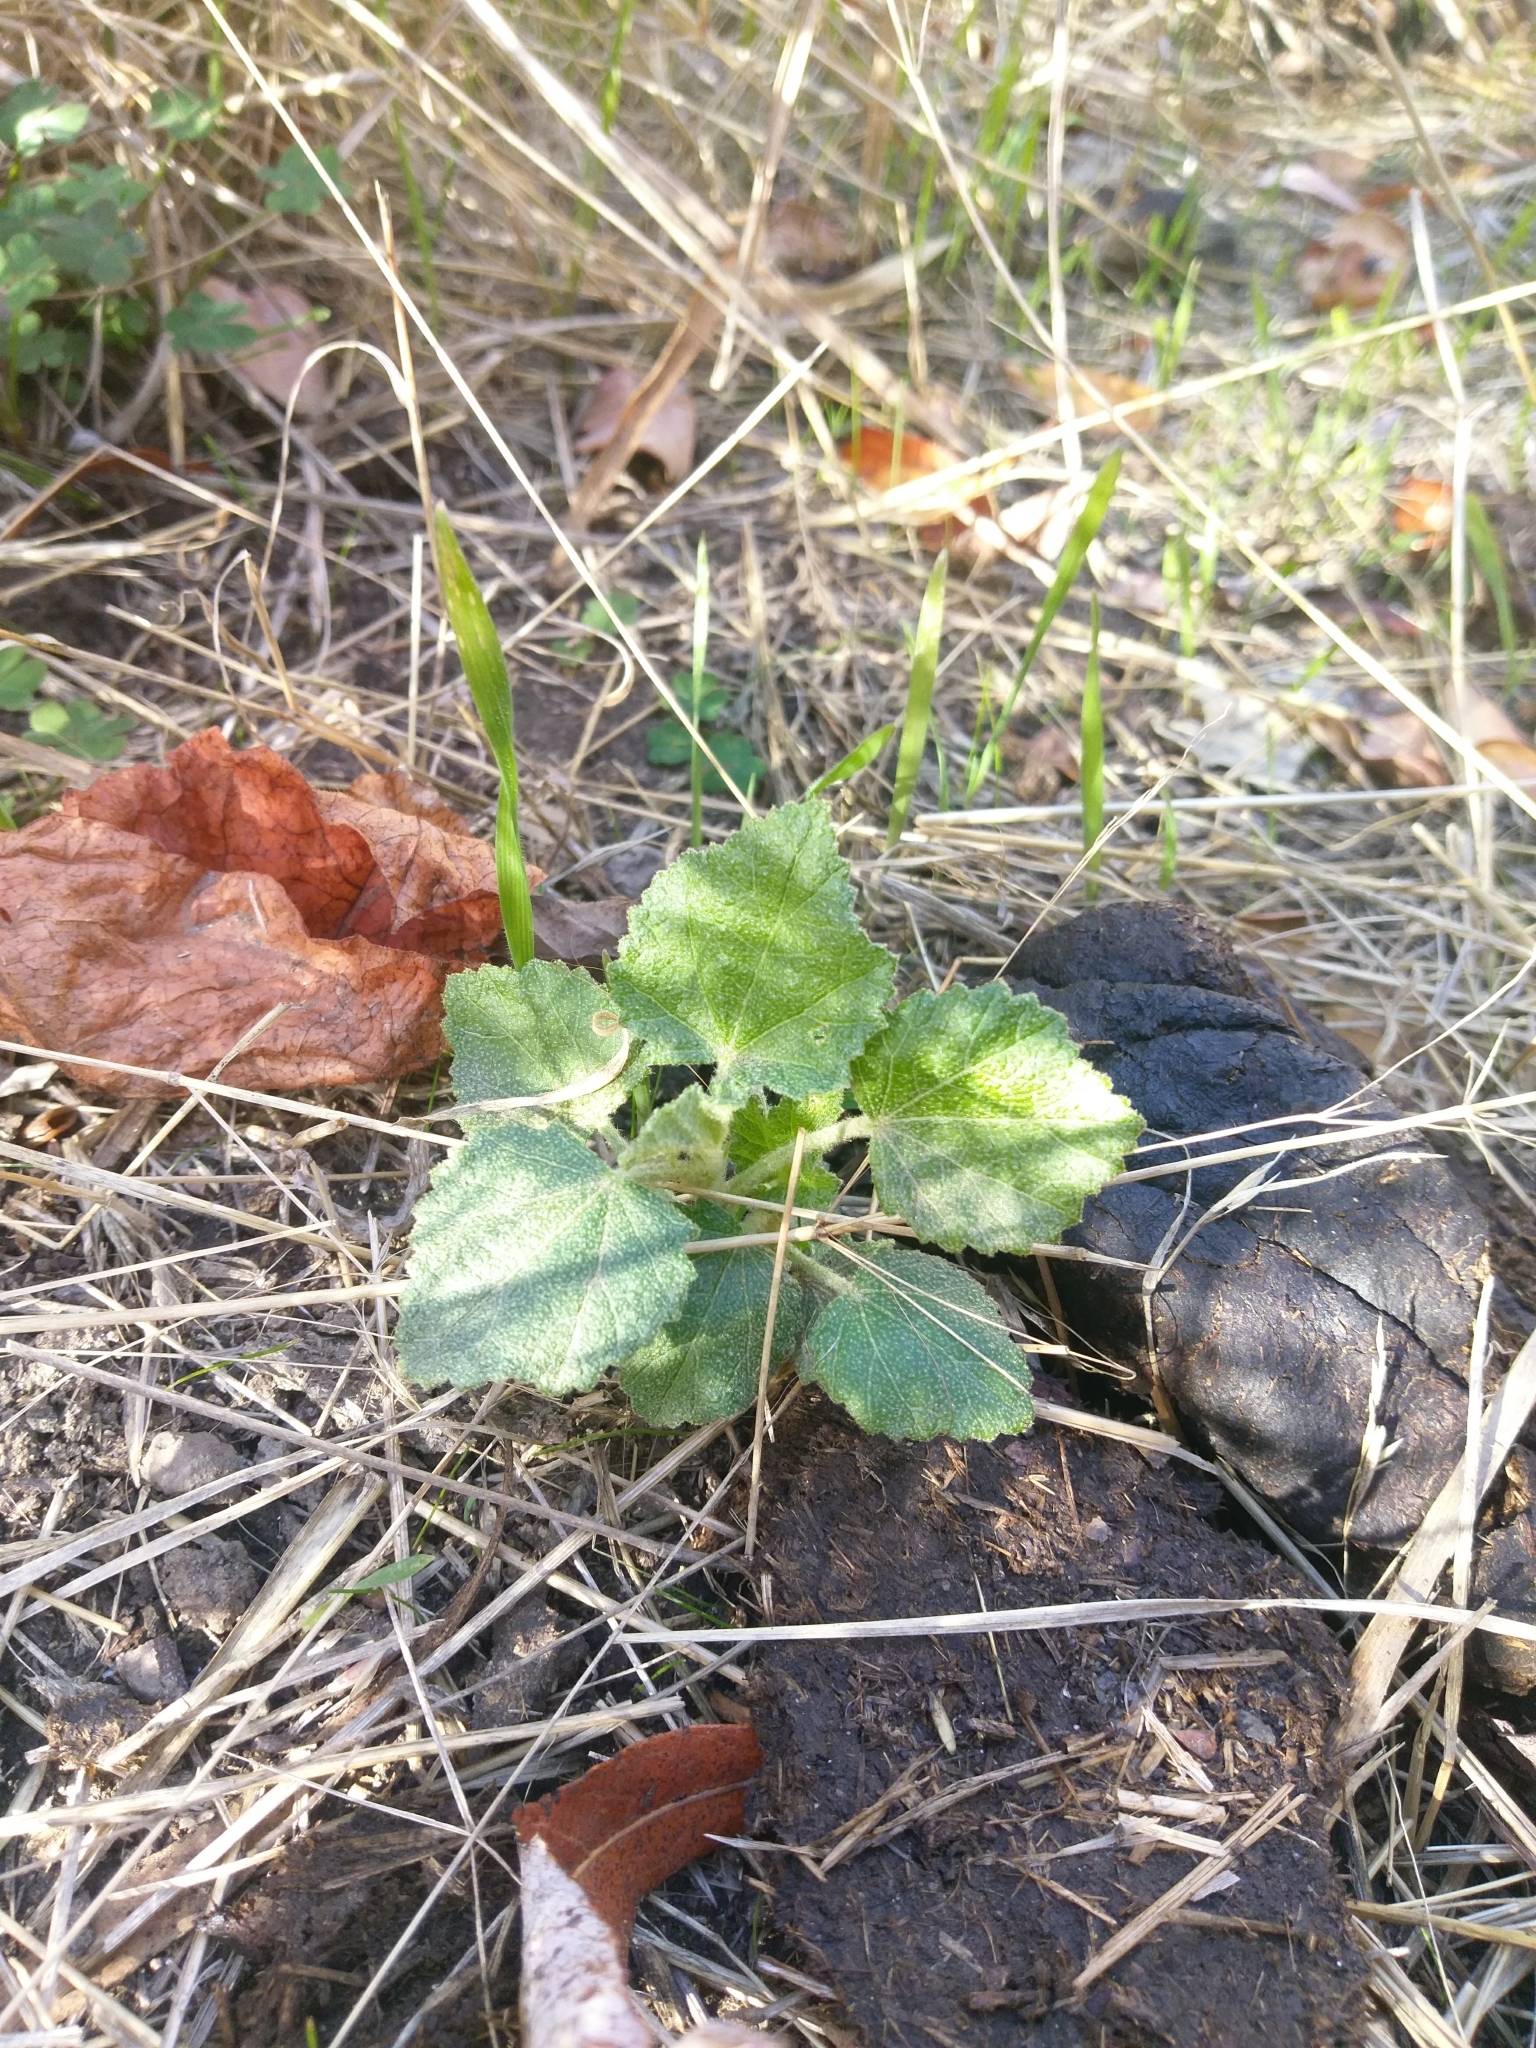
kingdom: Plantae
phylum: Tracheophyta
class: Magnoliopsida
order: Malvales
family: Malvaceae
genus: Malacothamnus
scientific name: Malacothamnus fasciculatus
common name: Sant cruz island bush-mallow
